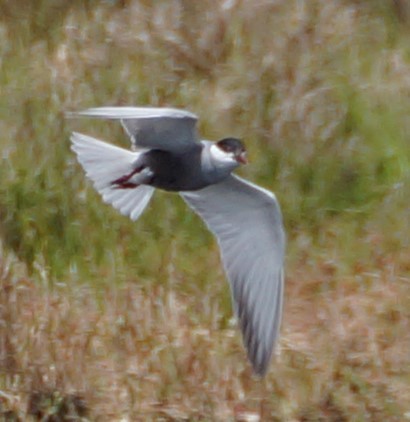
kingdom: Animalia
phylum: Chordata
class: Aves
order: Charadriiformes
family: Laridae
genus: Chlidonias
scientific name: Chlidonias hybrida
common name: Whiskered tern
